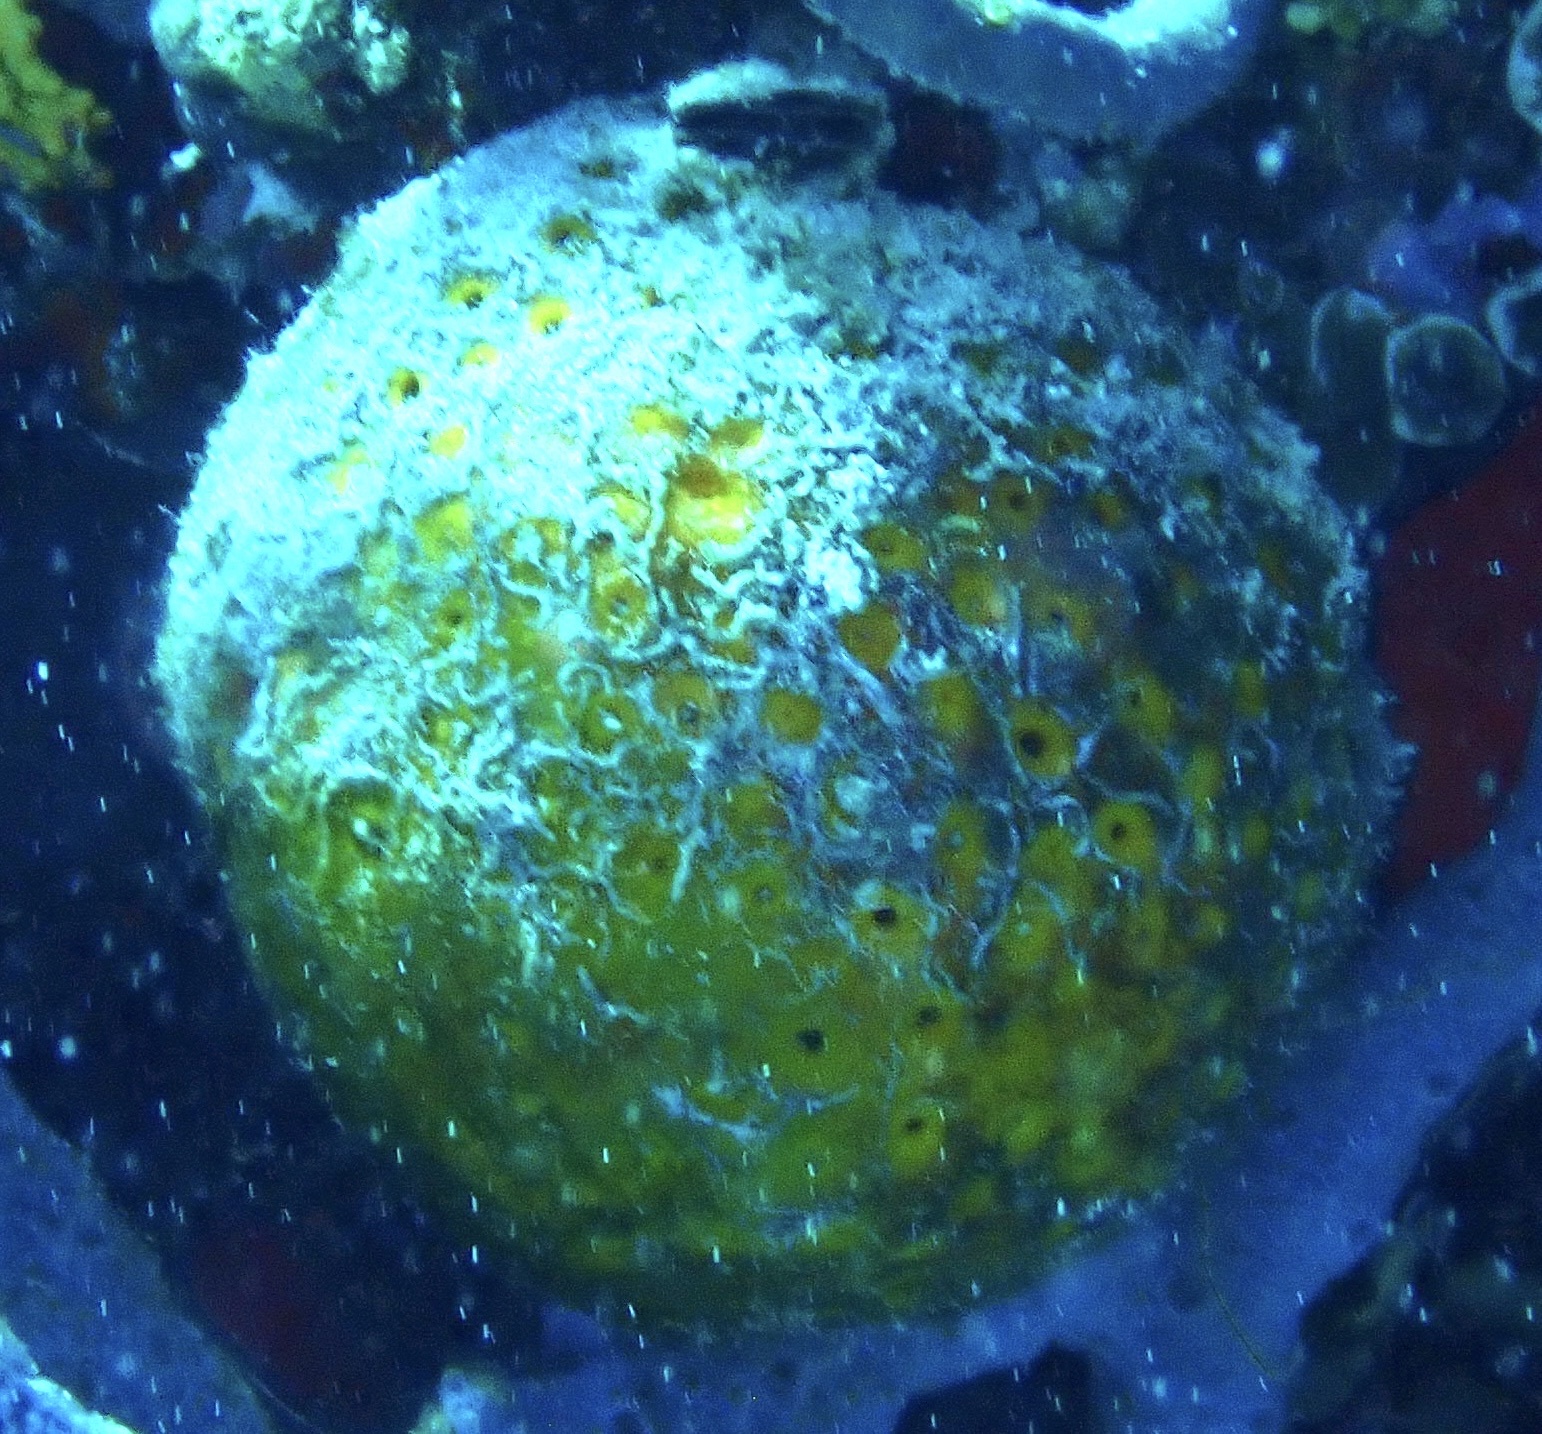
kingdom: Animalia
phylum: Porifera
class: Demospongiae
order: Tetractinellida
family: Tetillidae
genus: Cinachyrella
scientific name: Cinachyrella kuekenthali
